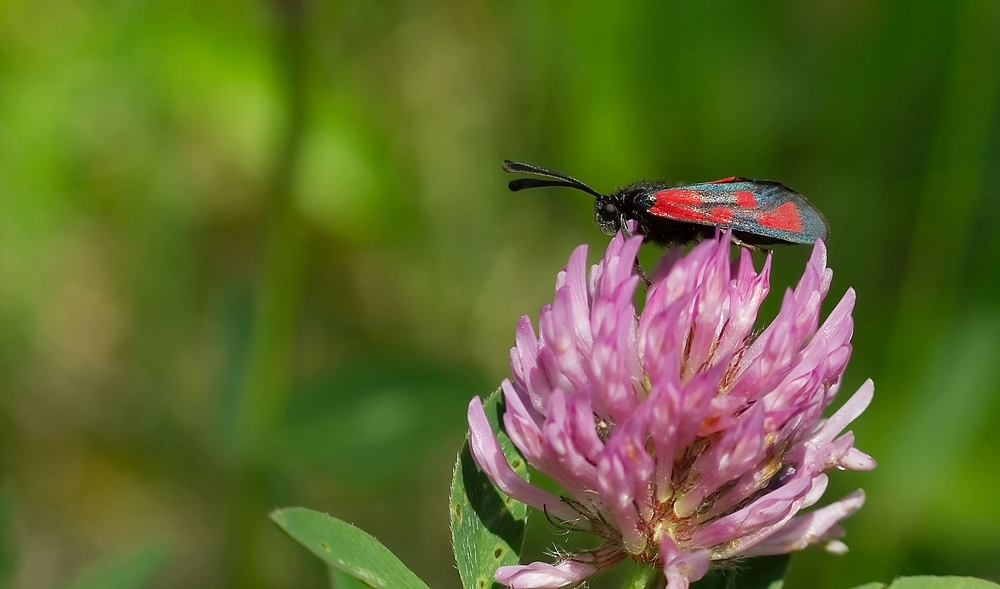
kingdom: Animalia
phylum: Arthropoda
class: Insecta
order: Lepidoptera
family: Zygaenidae
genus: Zygaena
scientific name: Zygaena loti
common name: Slender scotch burnet
